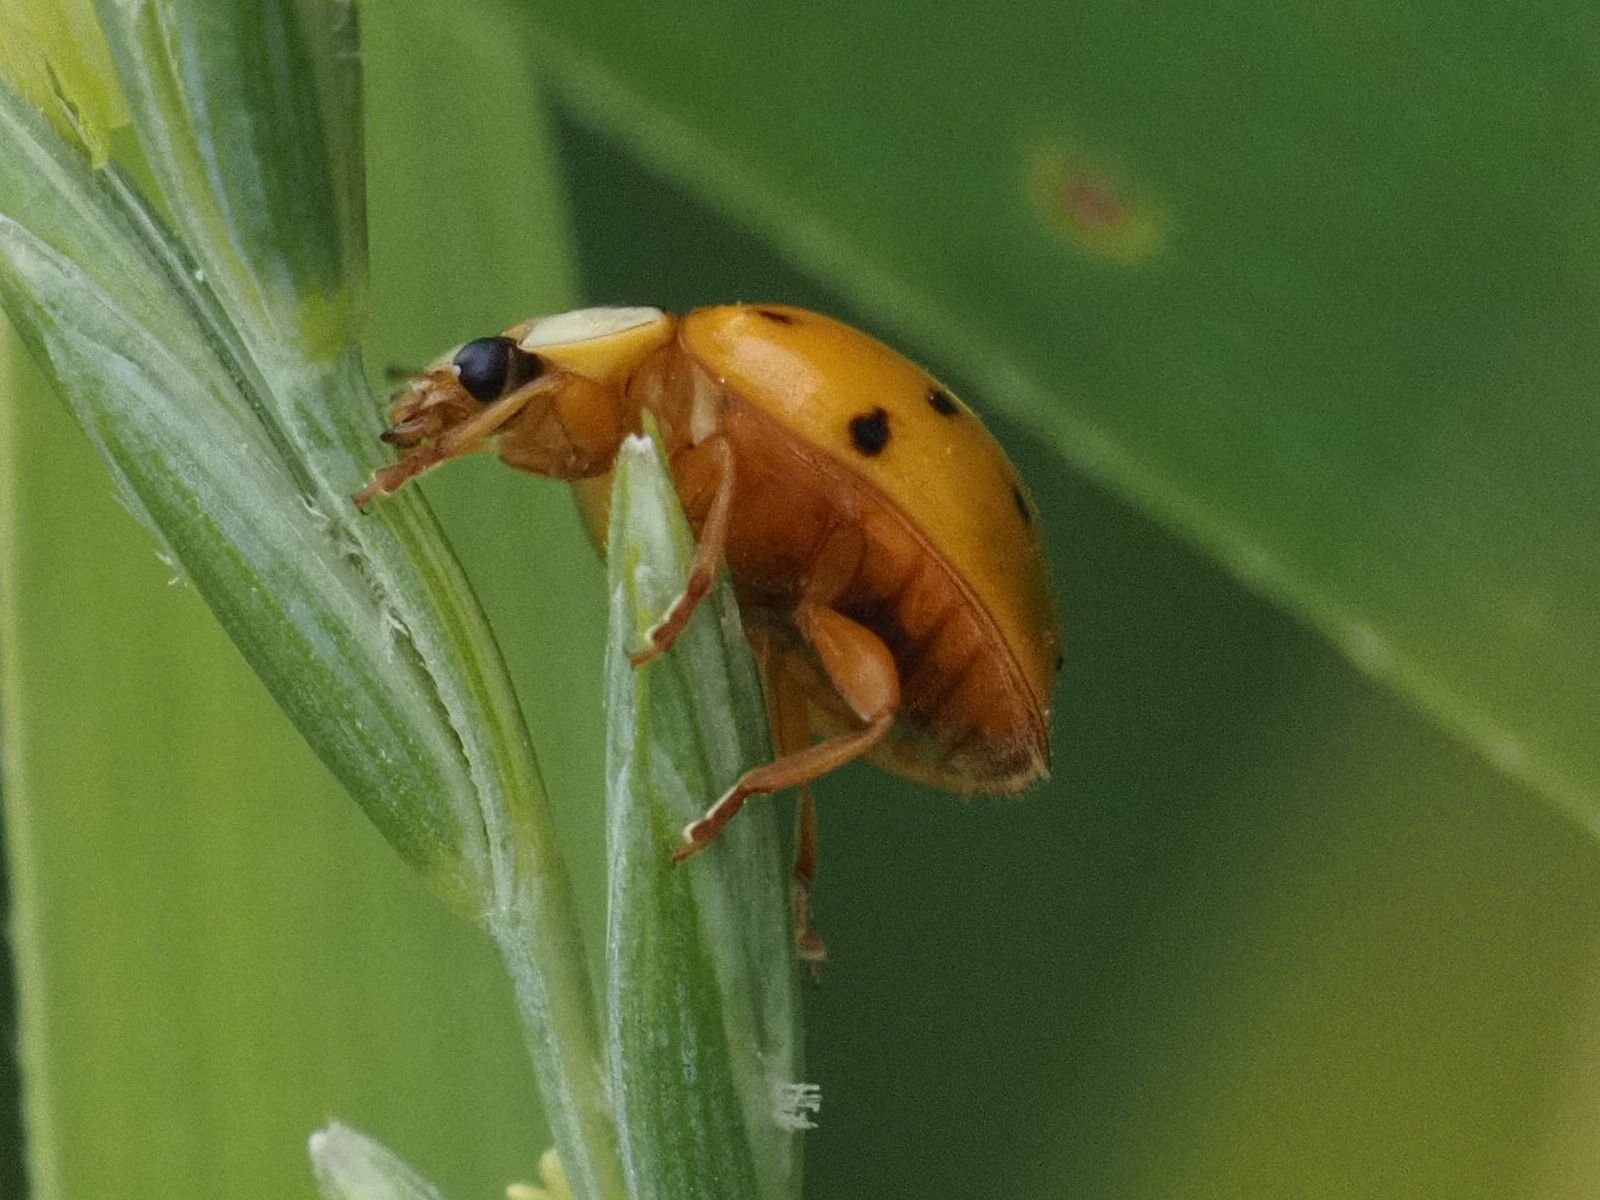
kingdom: Animalia
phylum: Arthropoda
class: Insecta
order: Coleoptera
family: Coccinellidae
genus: Harmonia
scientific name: Harmonia axyridis
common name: Harlequin ladybird
